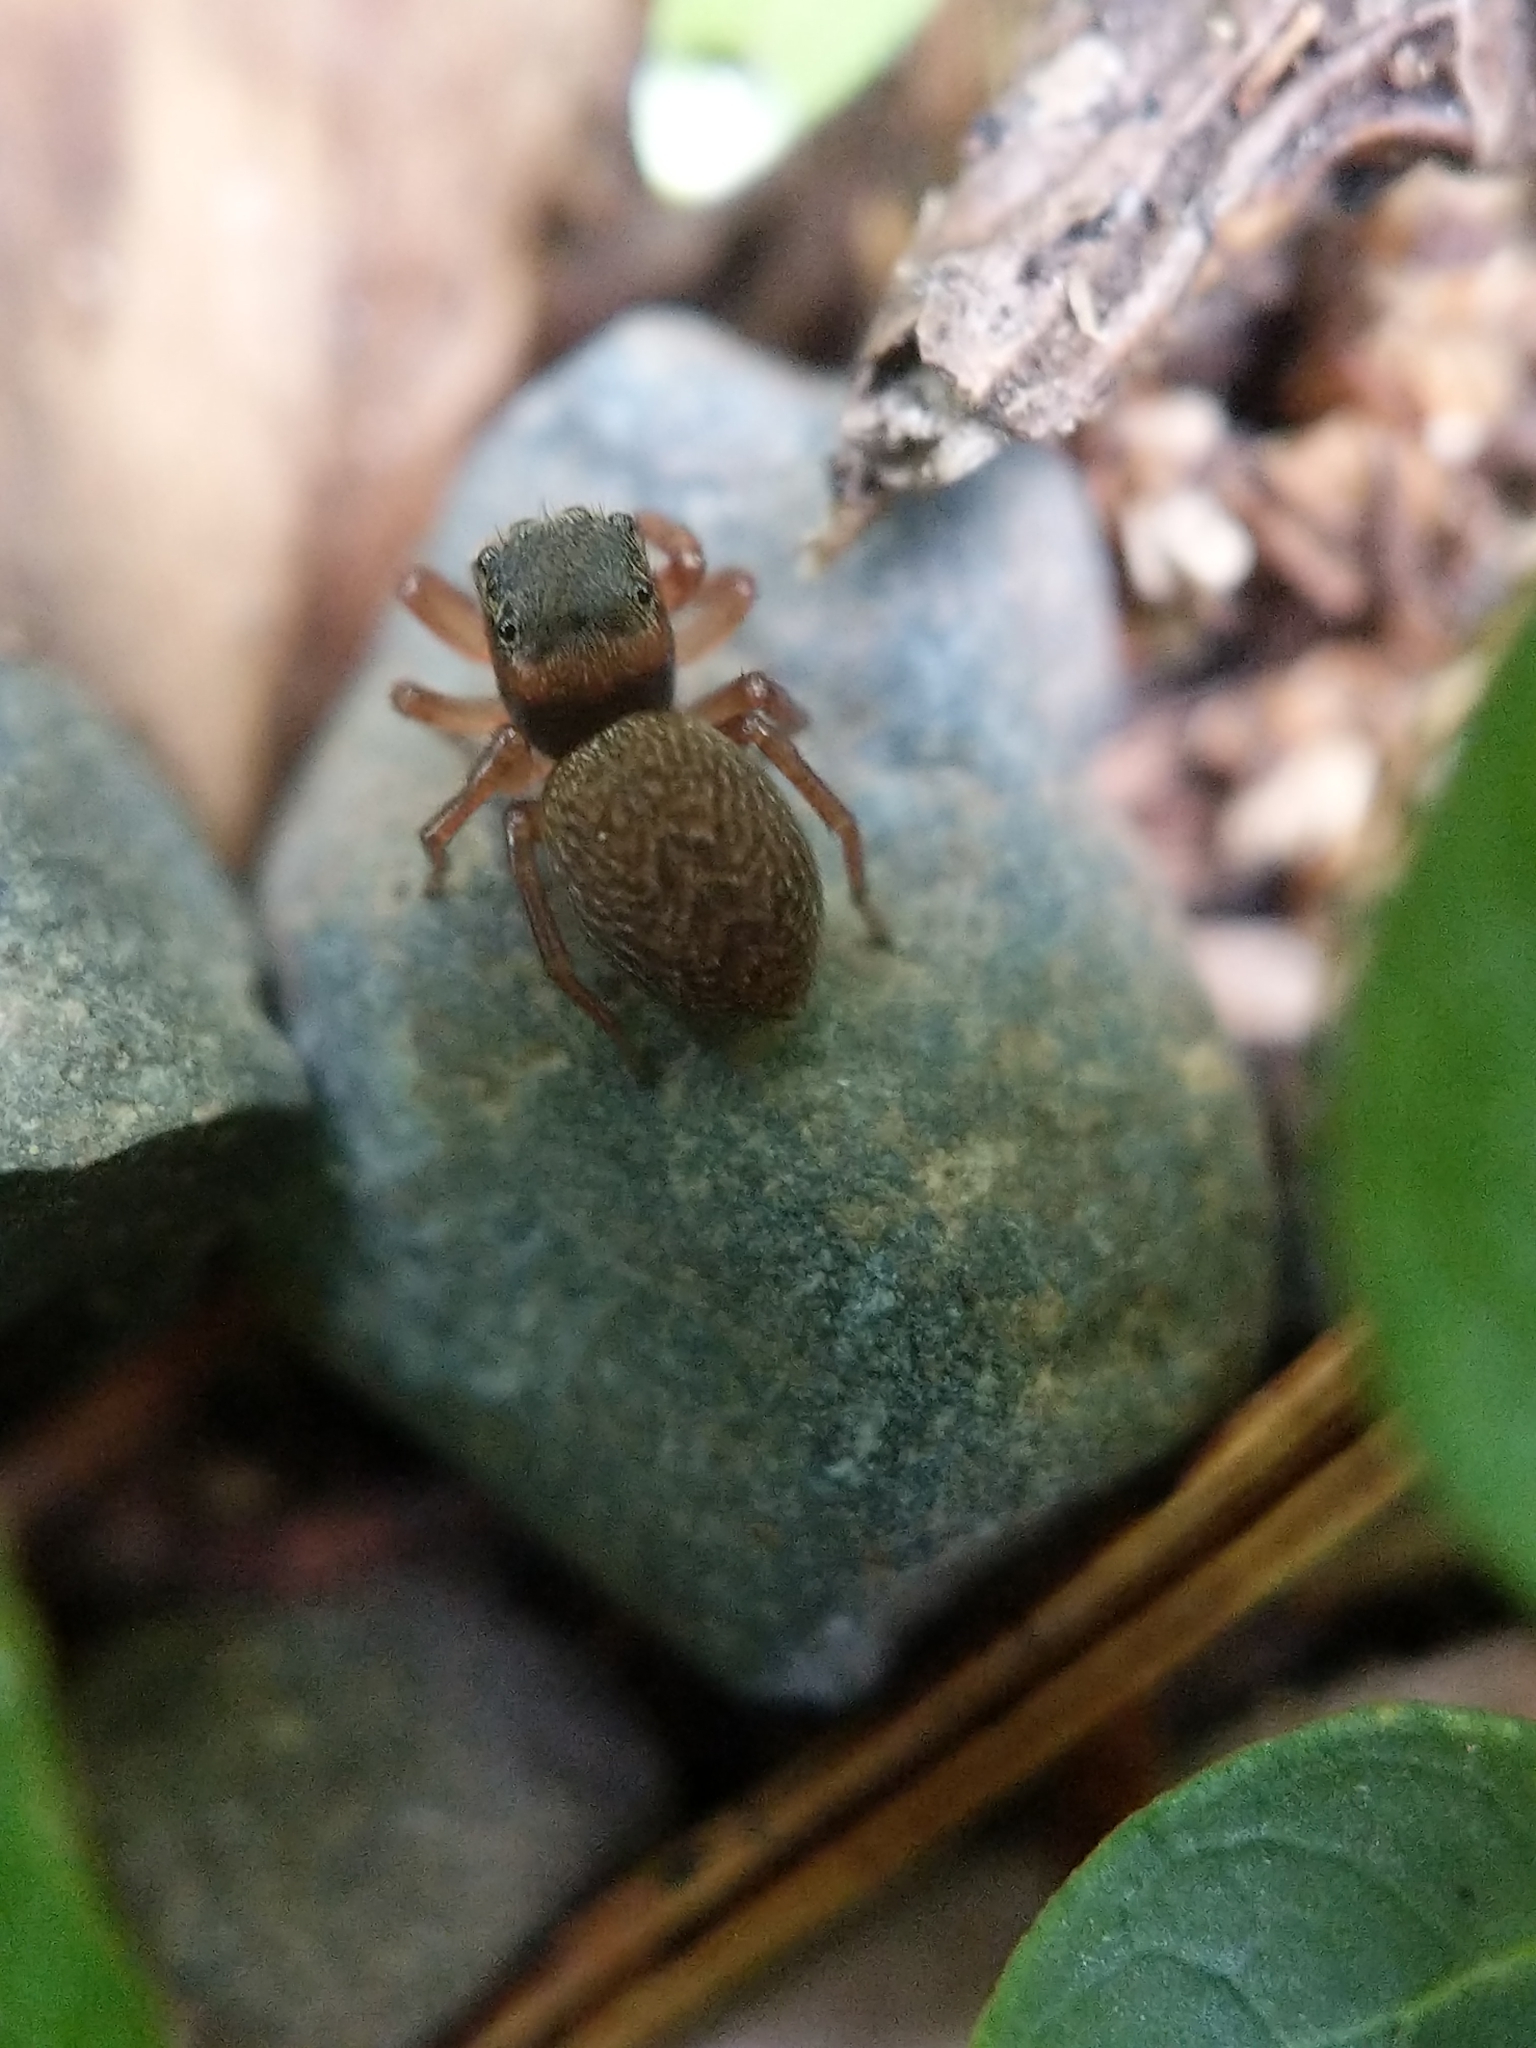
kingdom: Animalia
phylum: Arthropoda
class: Arachnida
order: Araneae
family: Salticidae
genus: Chinattus
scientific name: Chinattus parvulus
